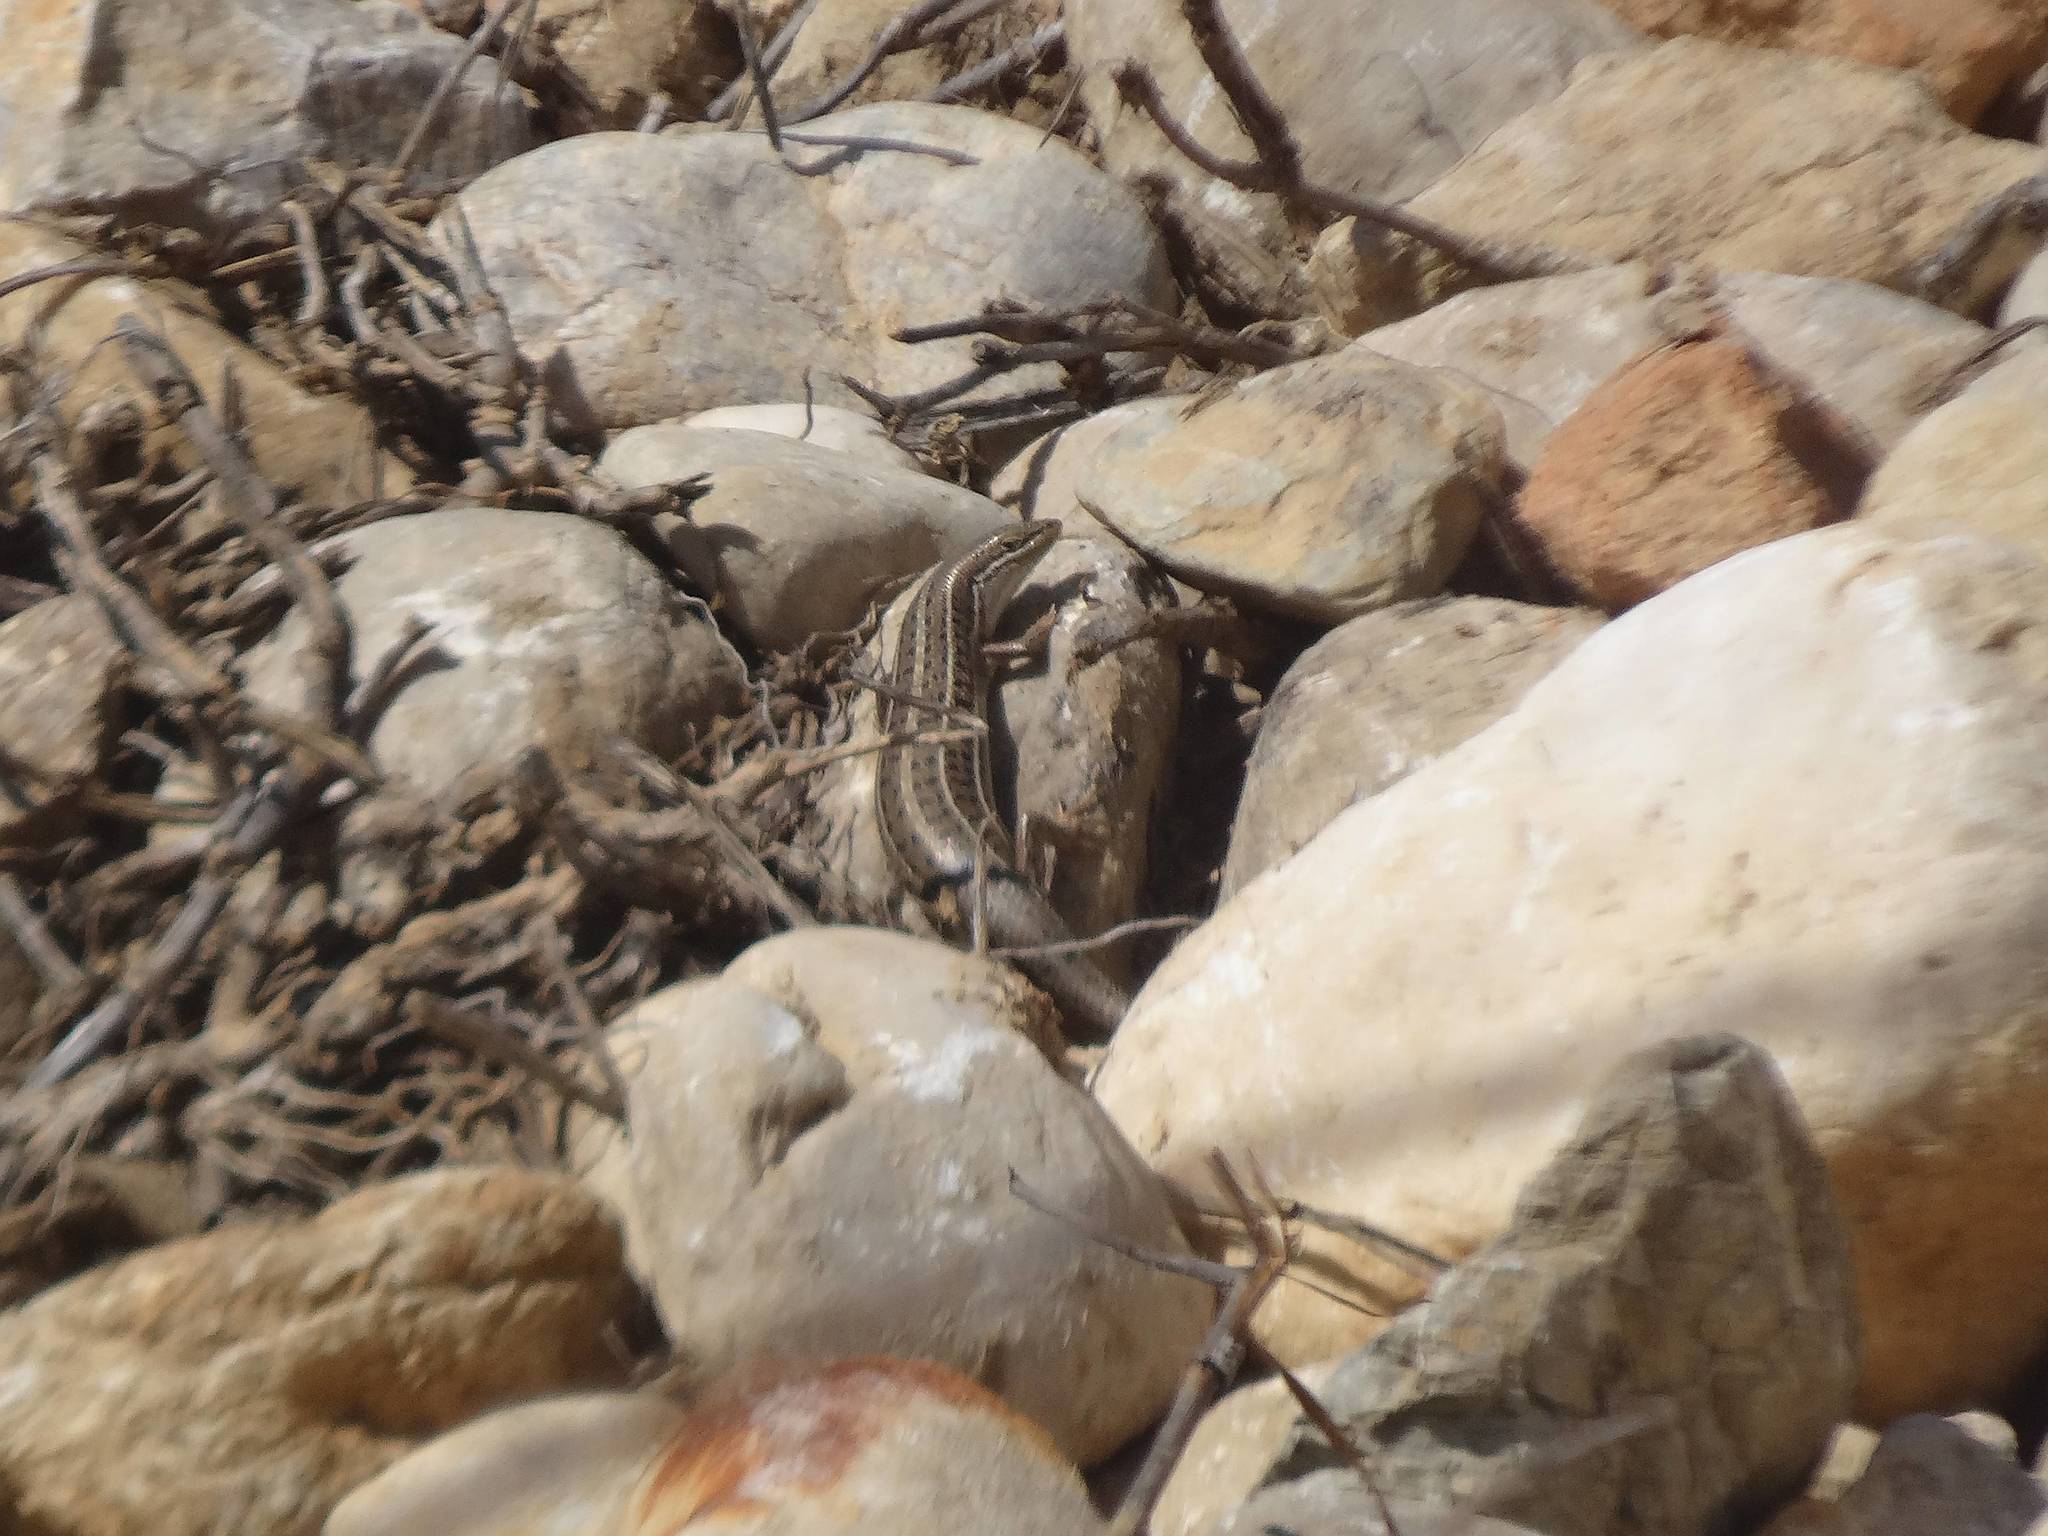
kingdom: Animalia
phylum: Chordata
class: Squamata
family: Scincidae
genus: Heremites
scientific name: Heremites vittatus
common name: Bridled mabuya
